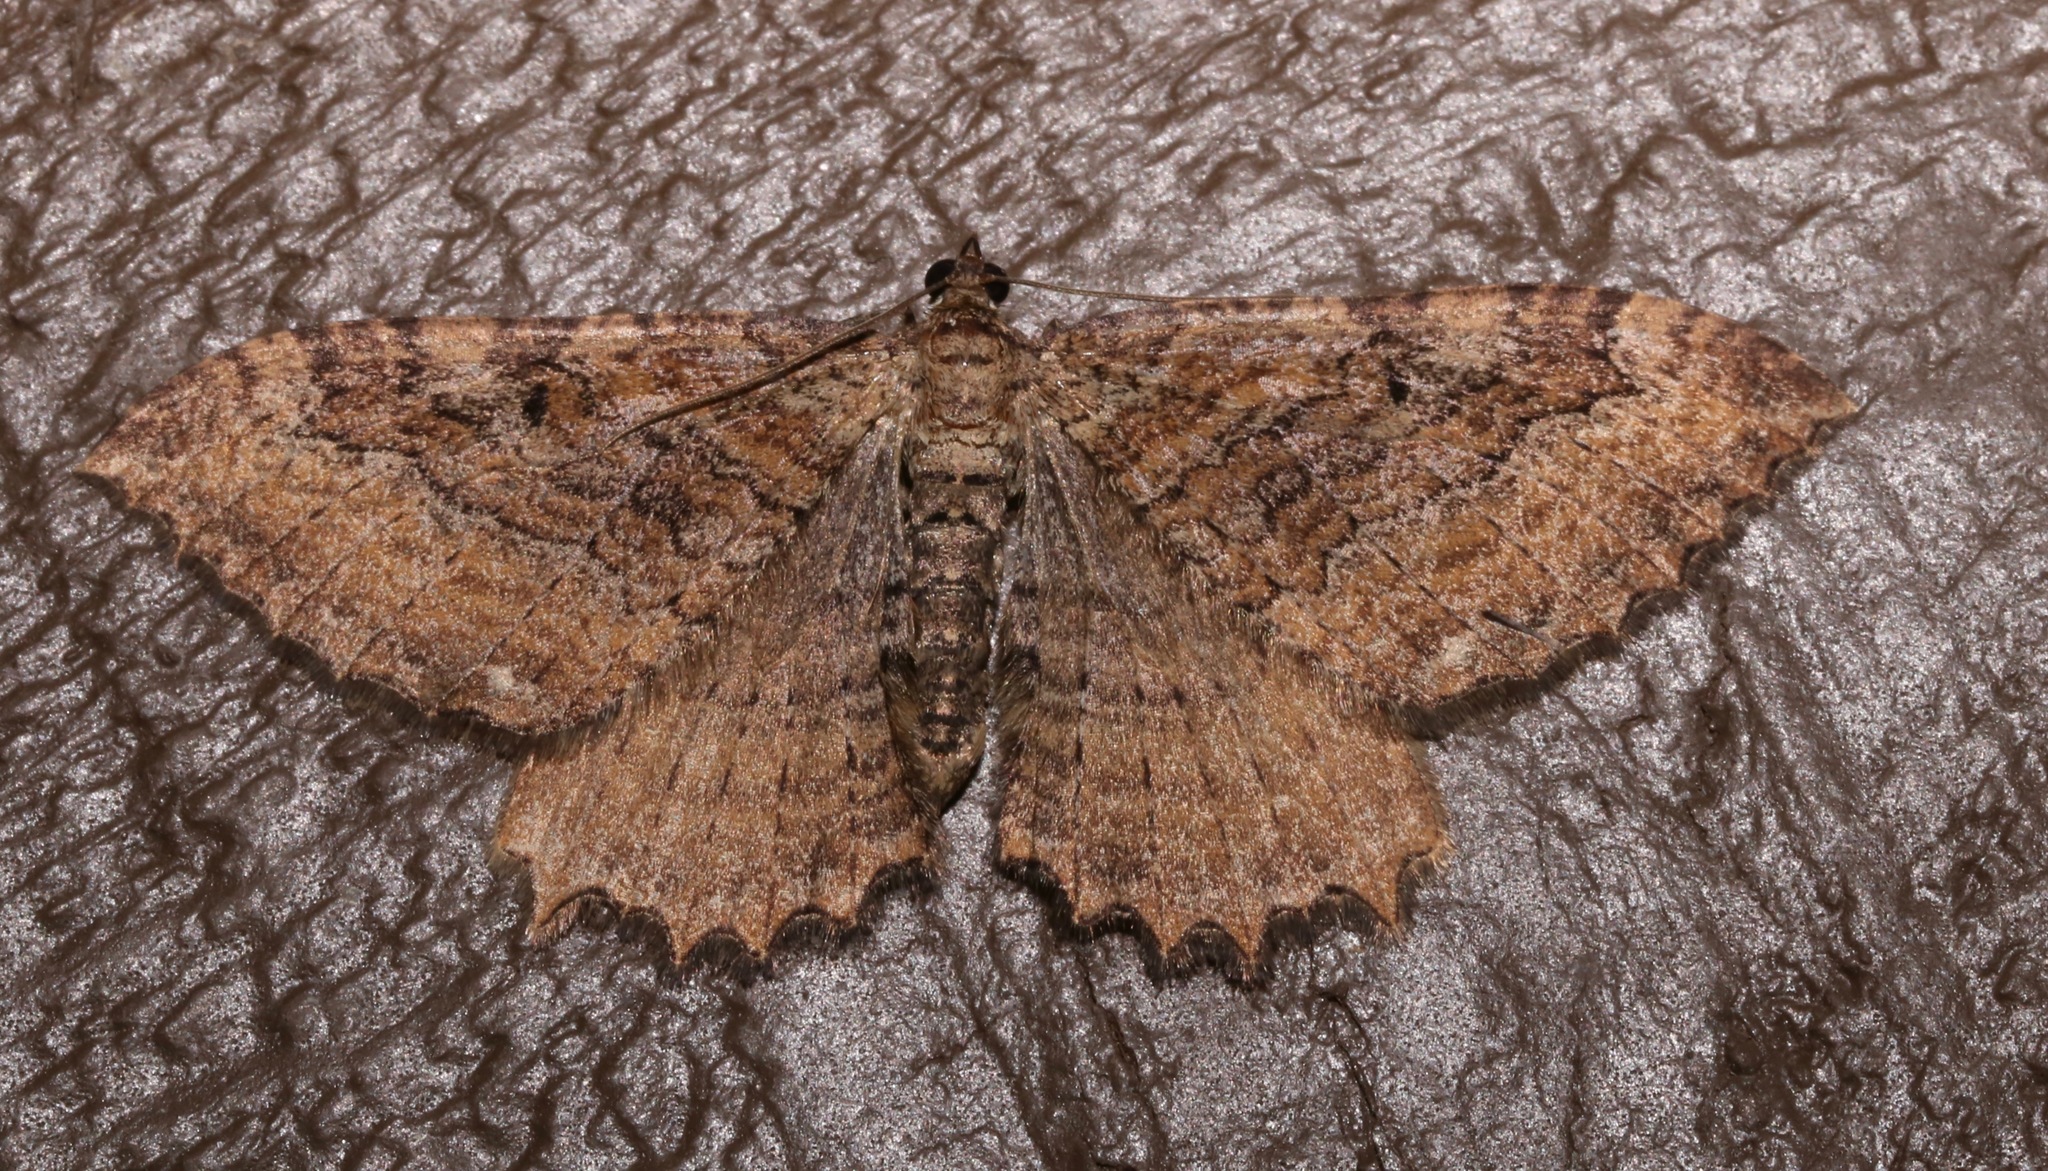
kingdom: Animalia
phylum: Arthropoda
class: Insecta
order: Lepidoptera
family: Geometridae
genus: Rheumaptera
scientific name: Rheumaptera
